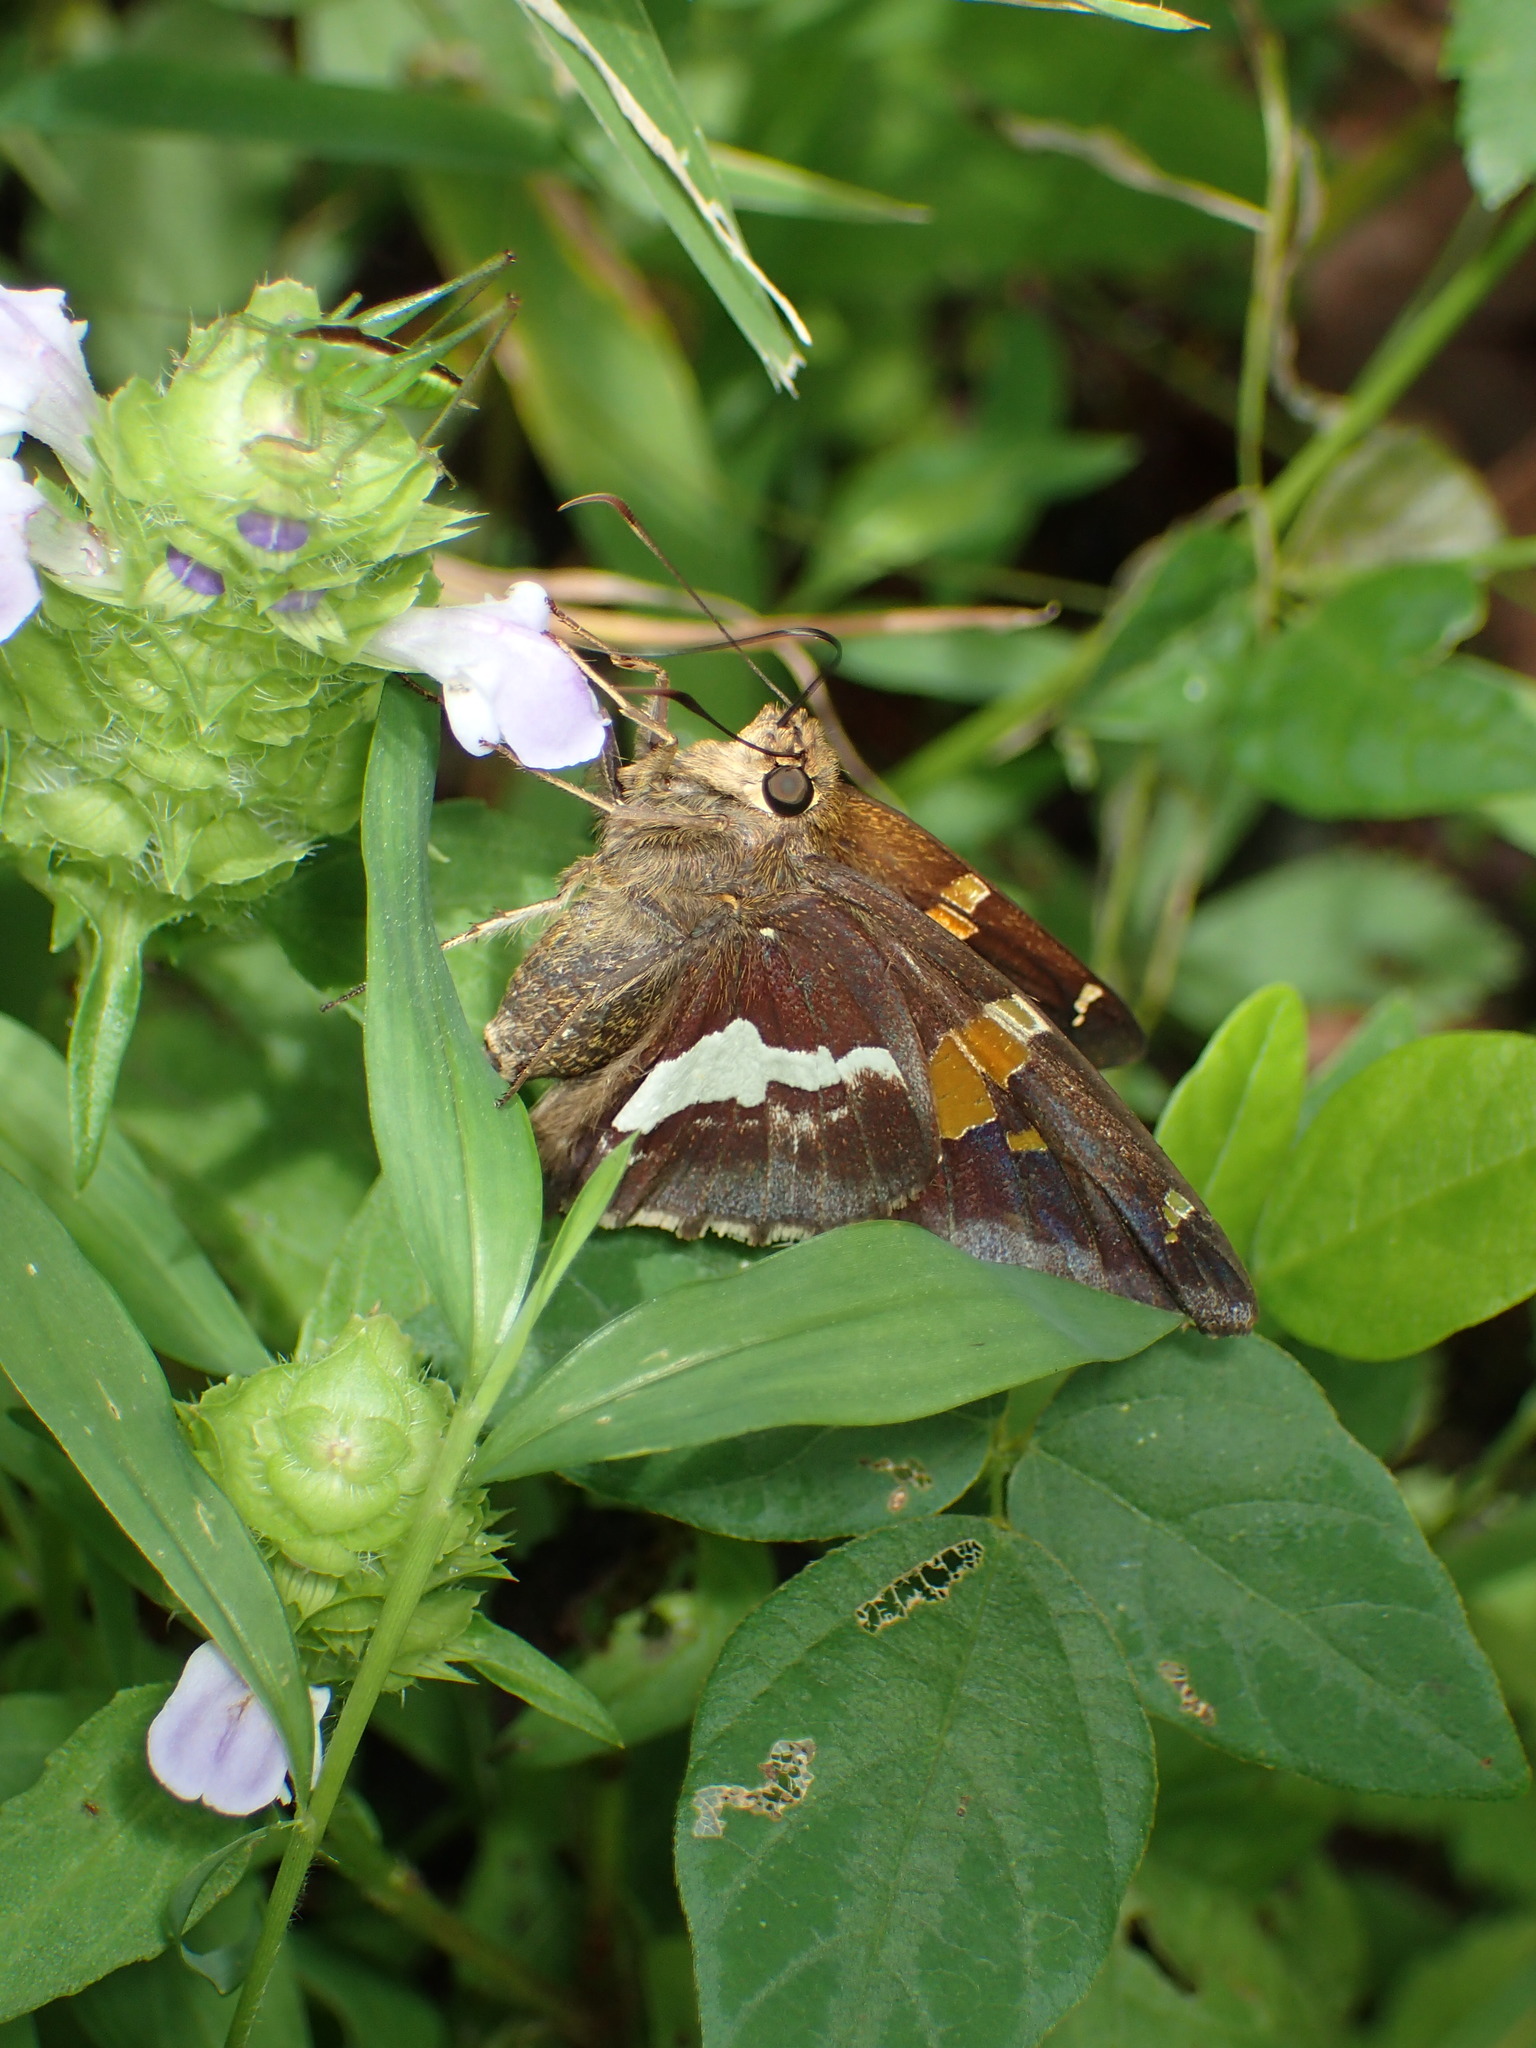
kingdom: Animalia
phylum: Arthropoda
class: Insecta
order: Lepidoptera
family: Hesperiidae
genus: Epargyreus
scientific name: Epargyreus clarus
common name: Silver-spotted skipper
